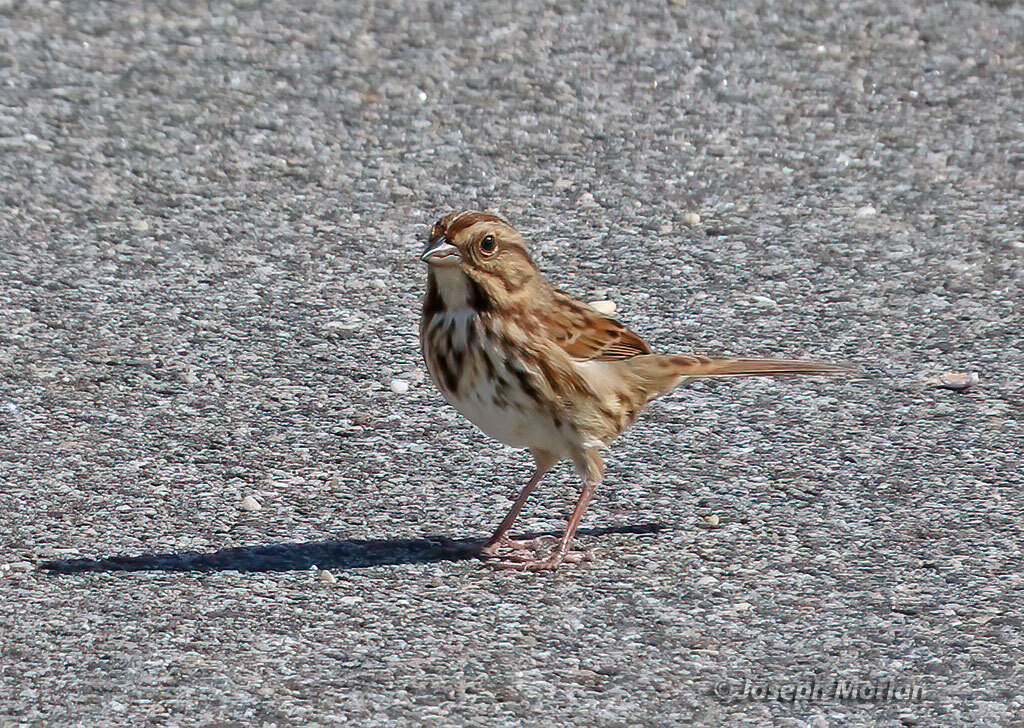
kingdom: Animalia
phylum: Chordata
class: Aves
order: Passeriformes
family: Passerellidae
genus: Melospiza
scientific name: Melospiza melodia
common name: Song sparrow
